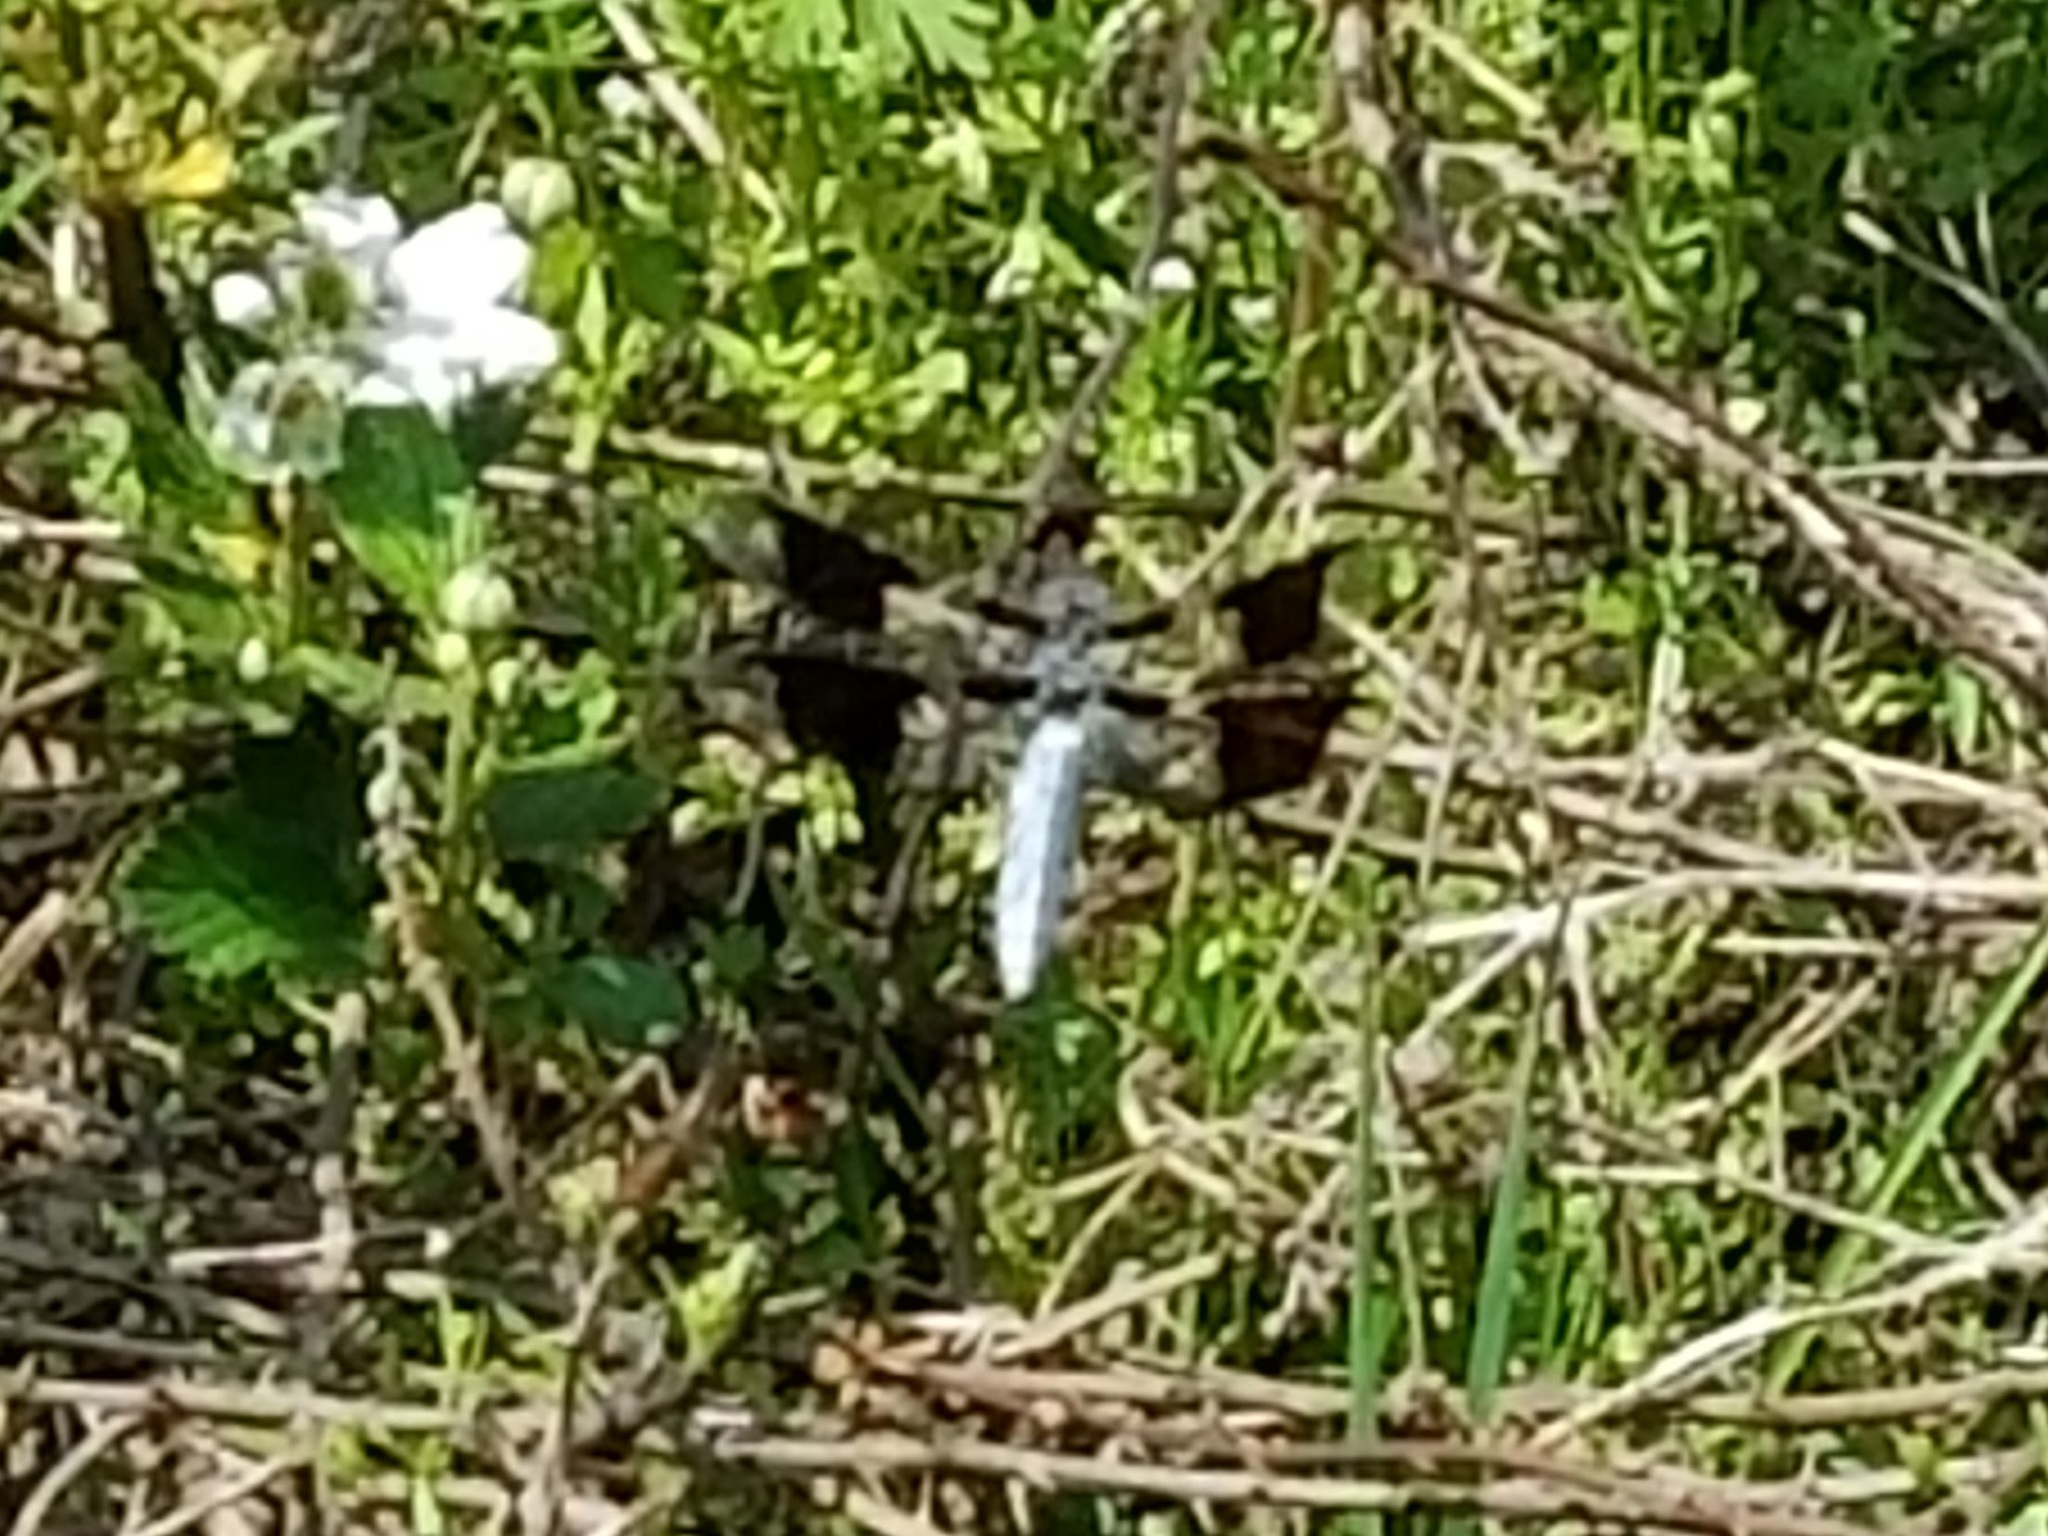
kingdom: Animalia
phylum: Arthropoda
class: Insecta
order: Odonata
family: Libellulidae
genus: Plathemis
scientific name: Plathemis lydia
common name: Common whitetail
